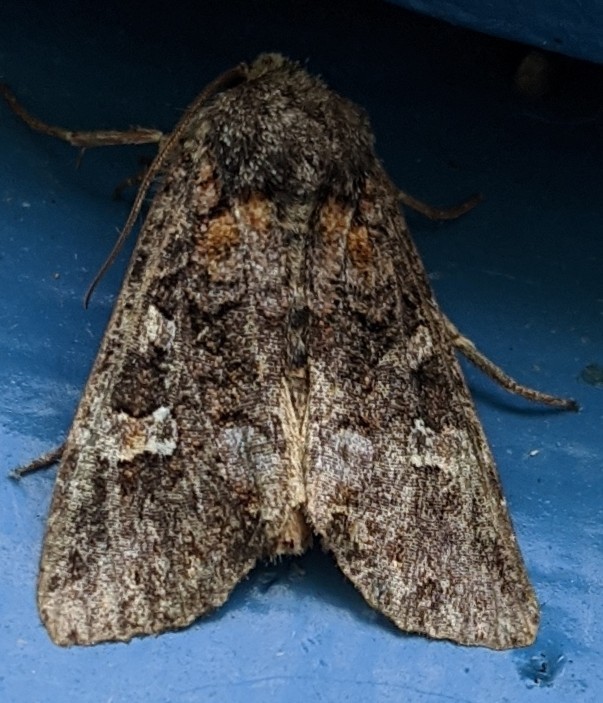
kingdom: Animalia
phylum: Arthropoda
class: Insecta
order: Lepidoptera
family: Noctuidae
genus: Spiramater
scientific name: Spiramater lutra
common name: Otter spiramater moth
